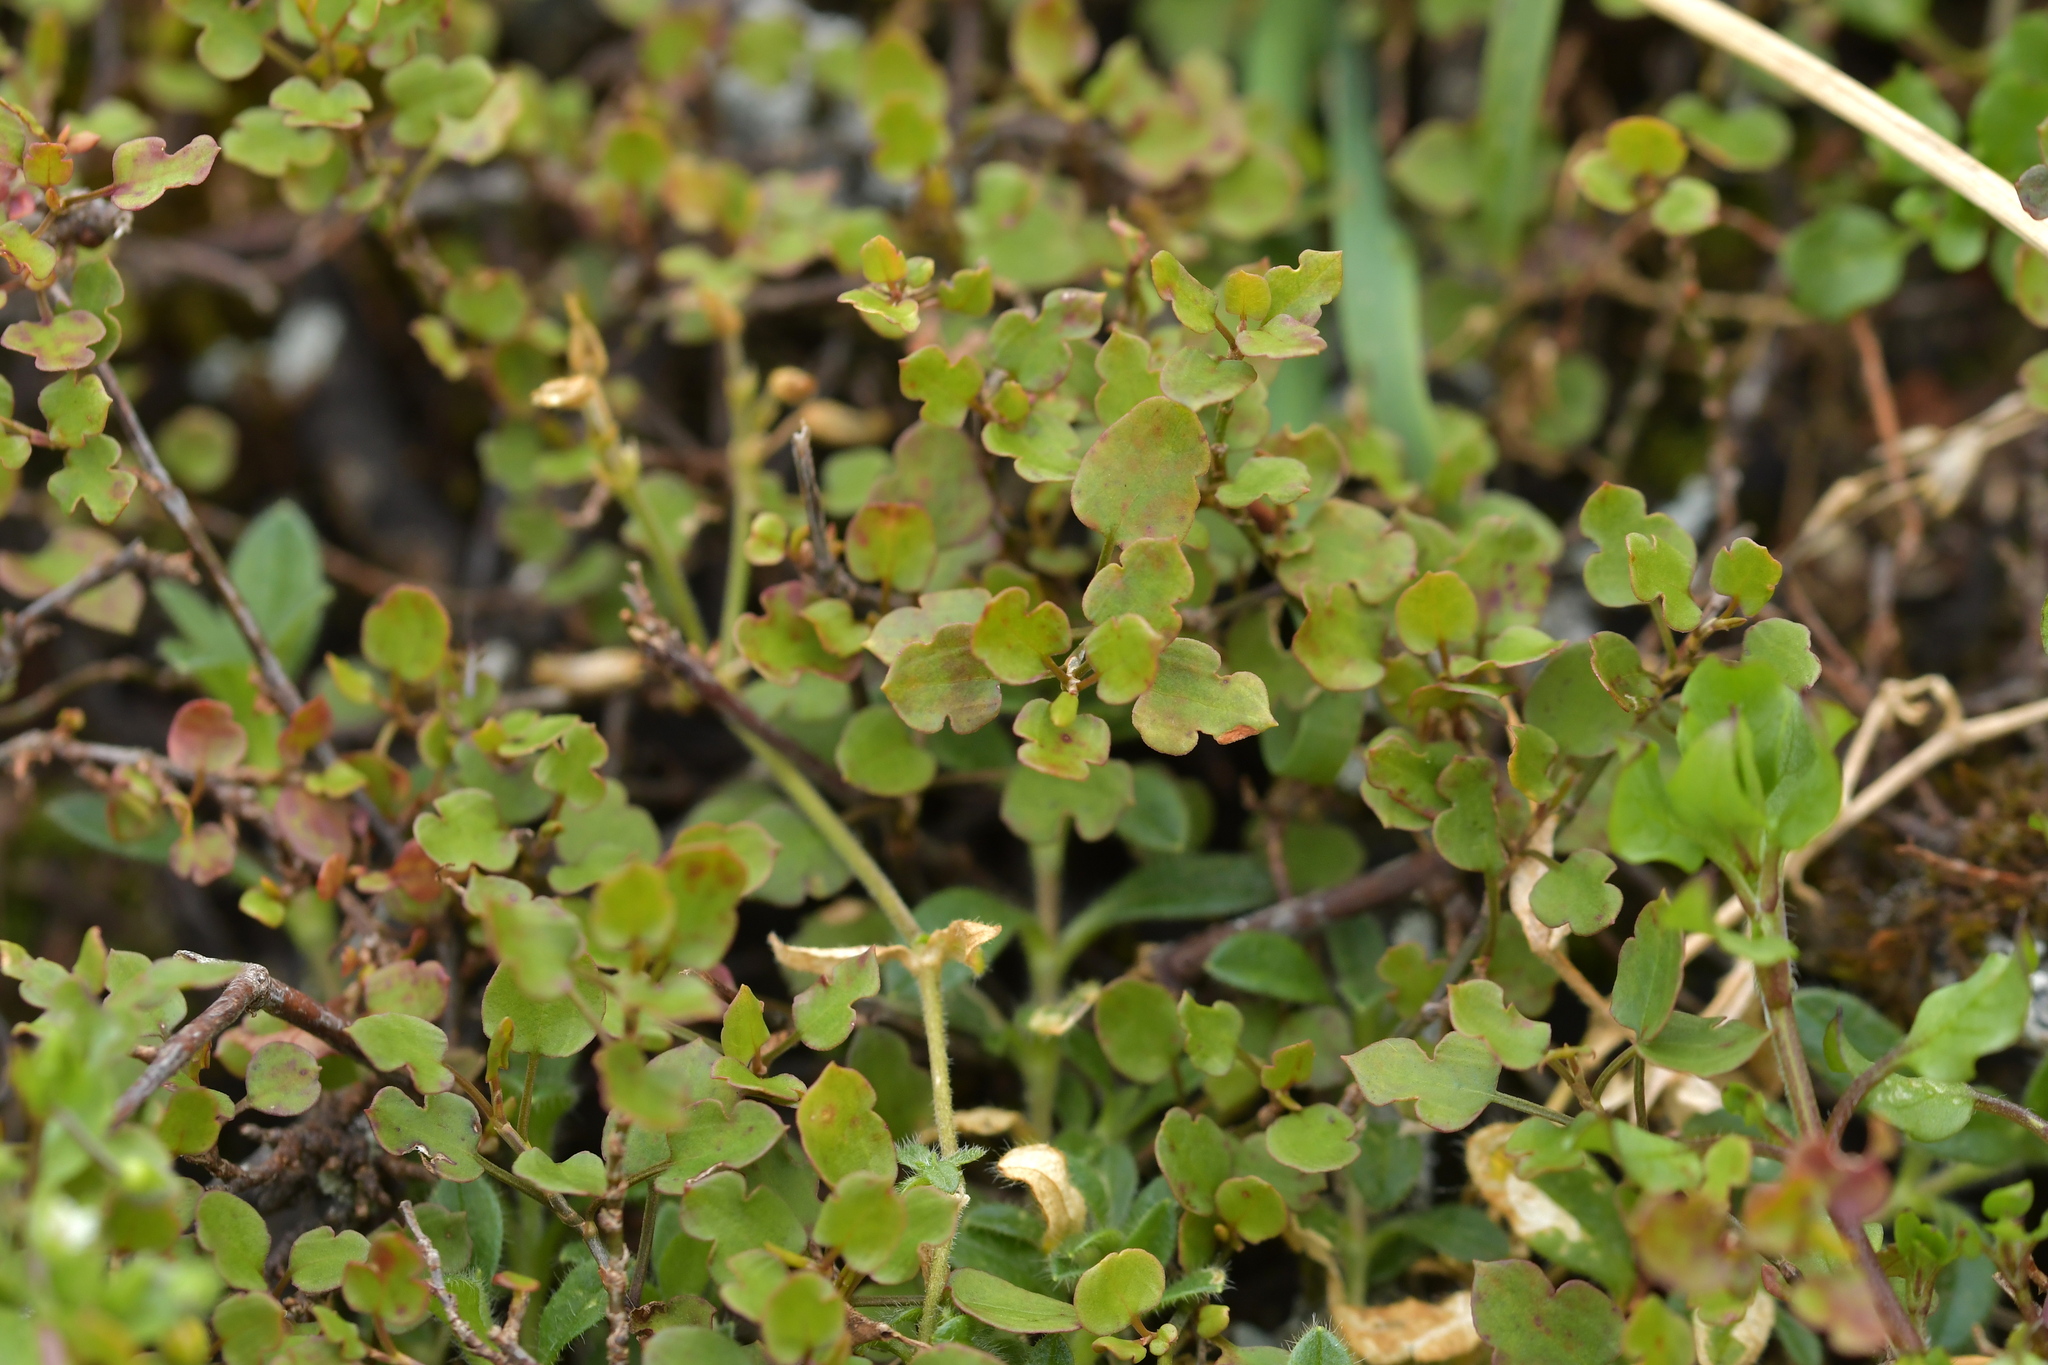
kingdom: Plantae
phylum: Tracheophyta
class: Magnoliopsida
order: Caryophyllales
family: Polygonaceae
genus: Muehlenbeckia
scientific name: Muehlenbeckia australis
